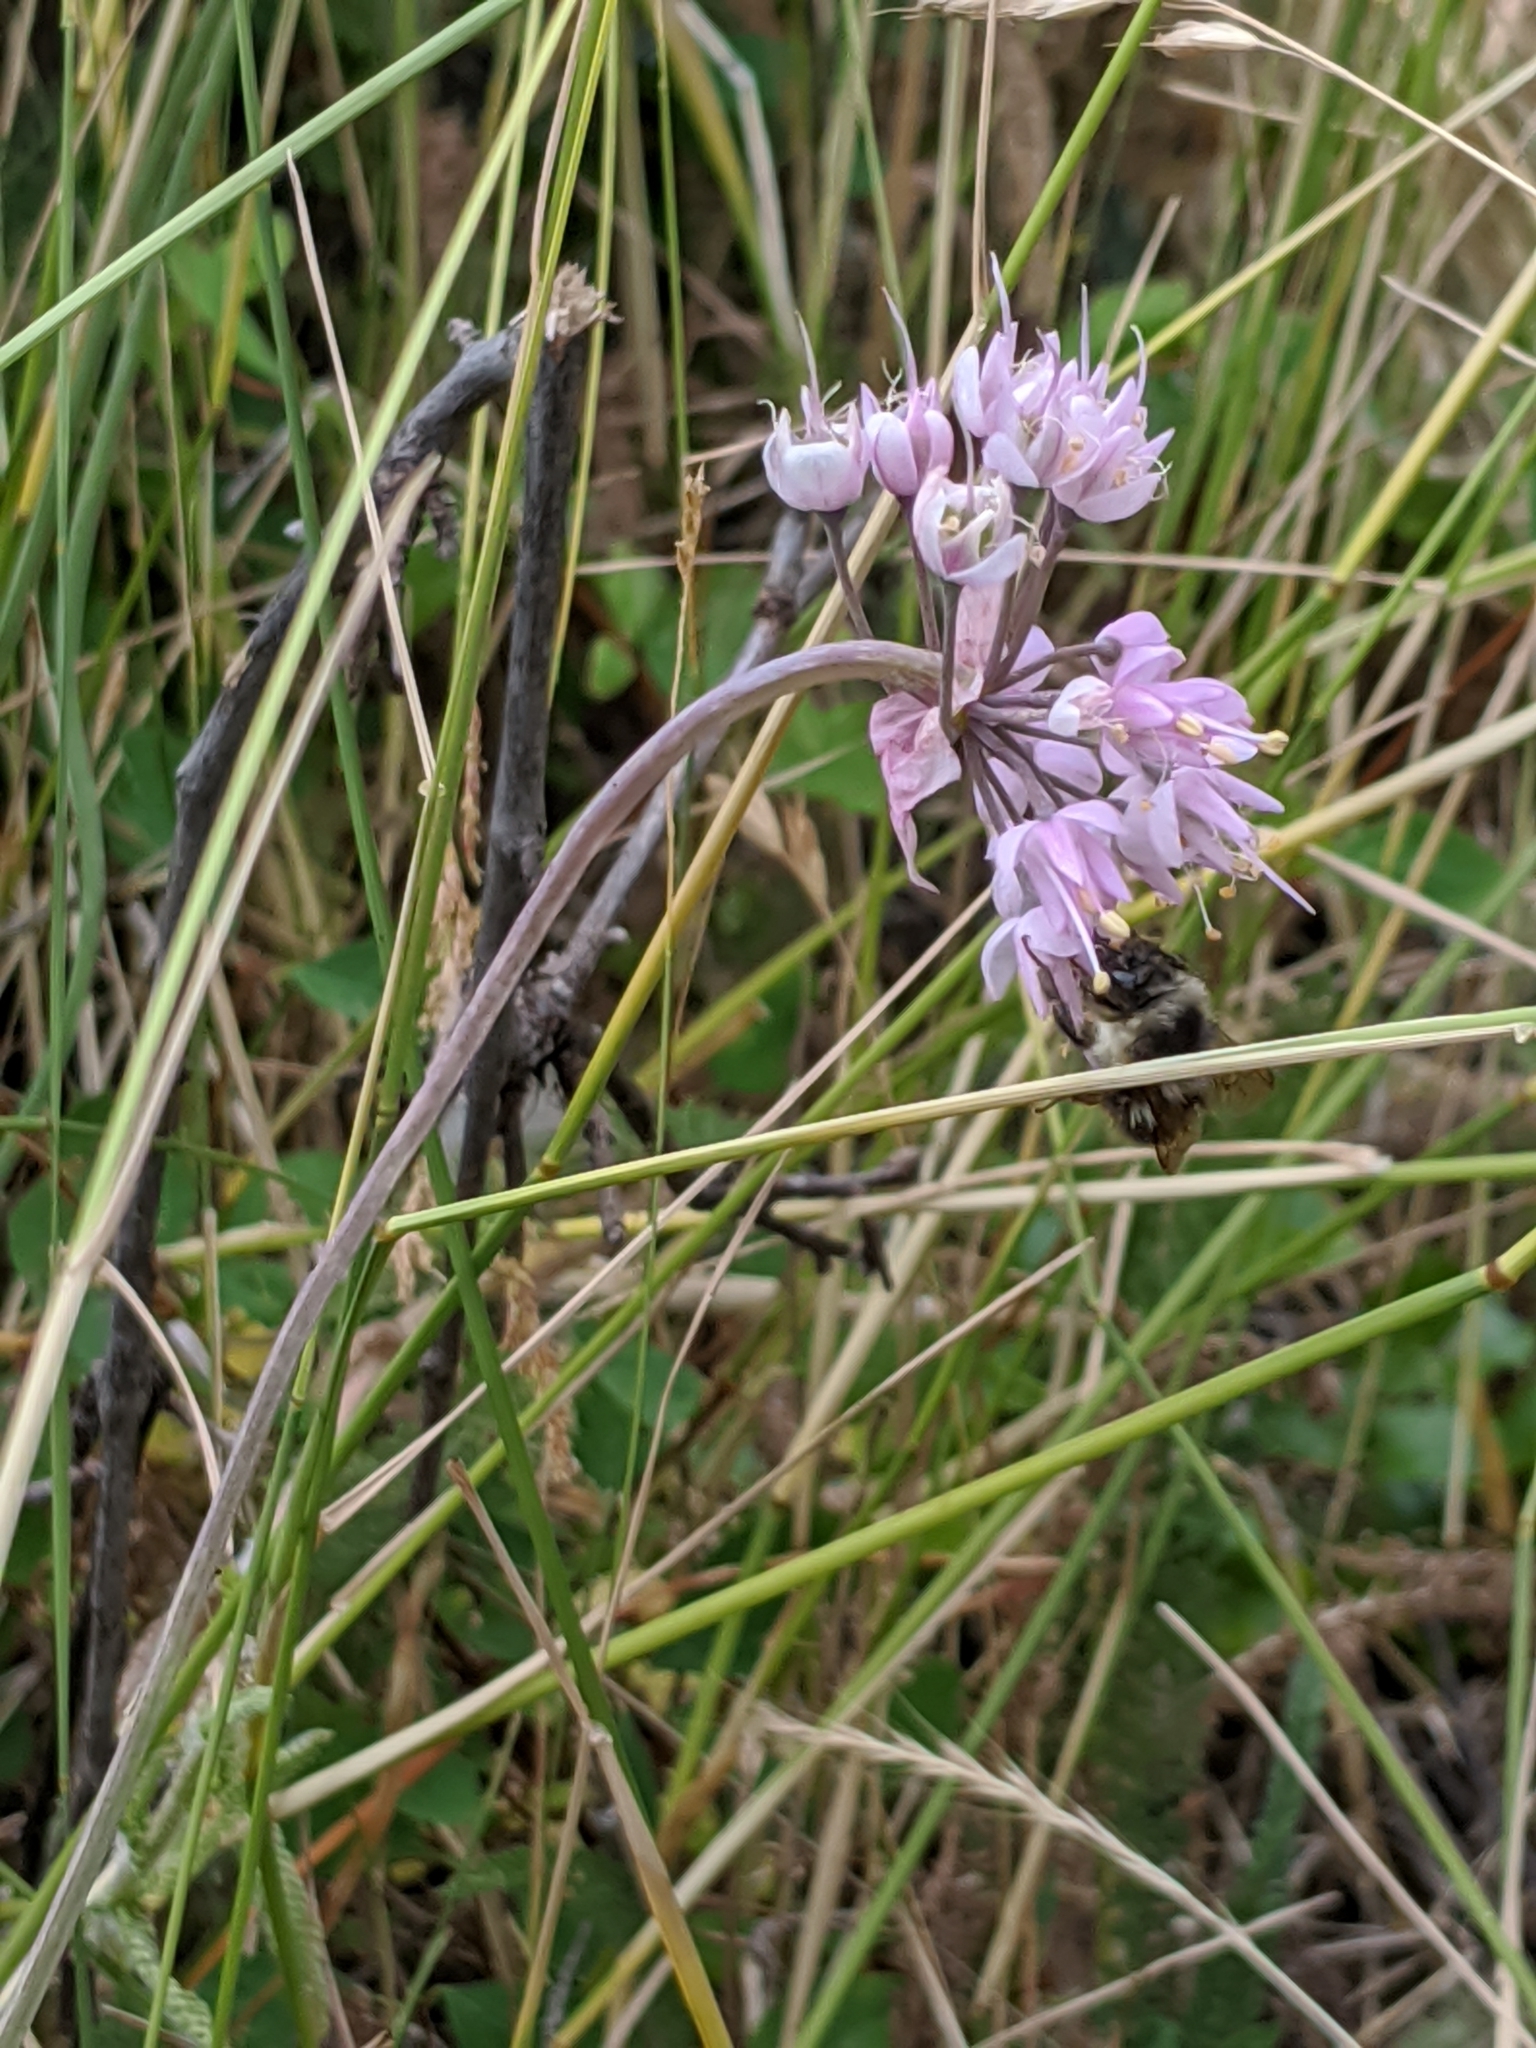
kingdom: Plantae
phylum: Tracheophyta
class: Liliopsida
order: Asparagales
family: Amaryllidaceae
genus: Allium
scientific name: Allium cernuum
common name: Nodding onion
